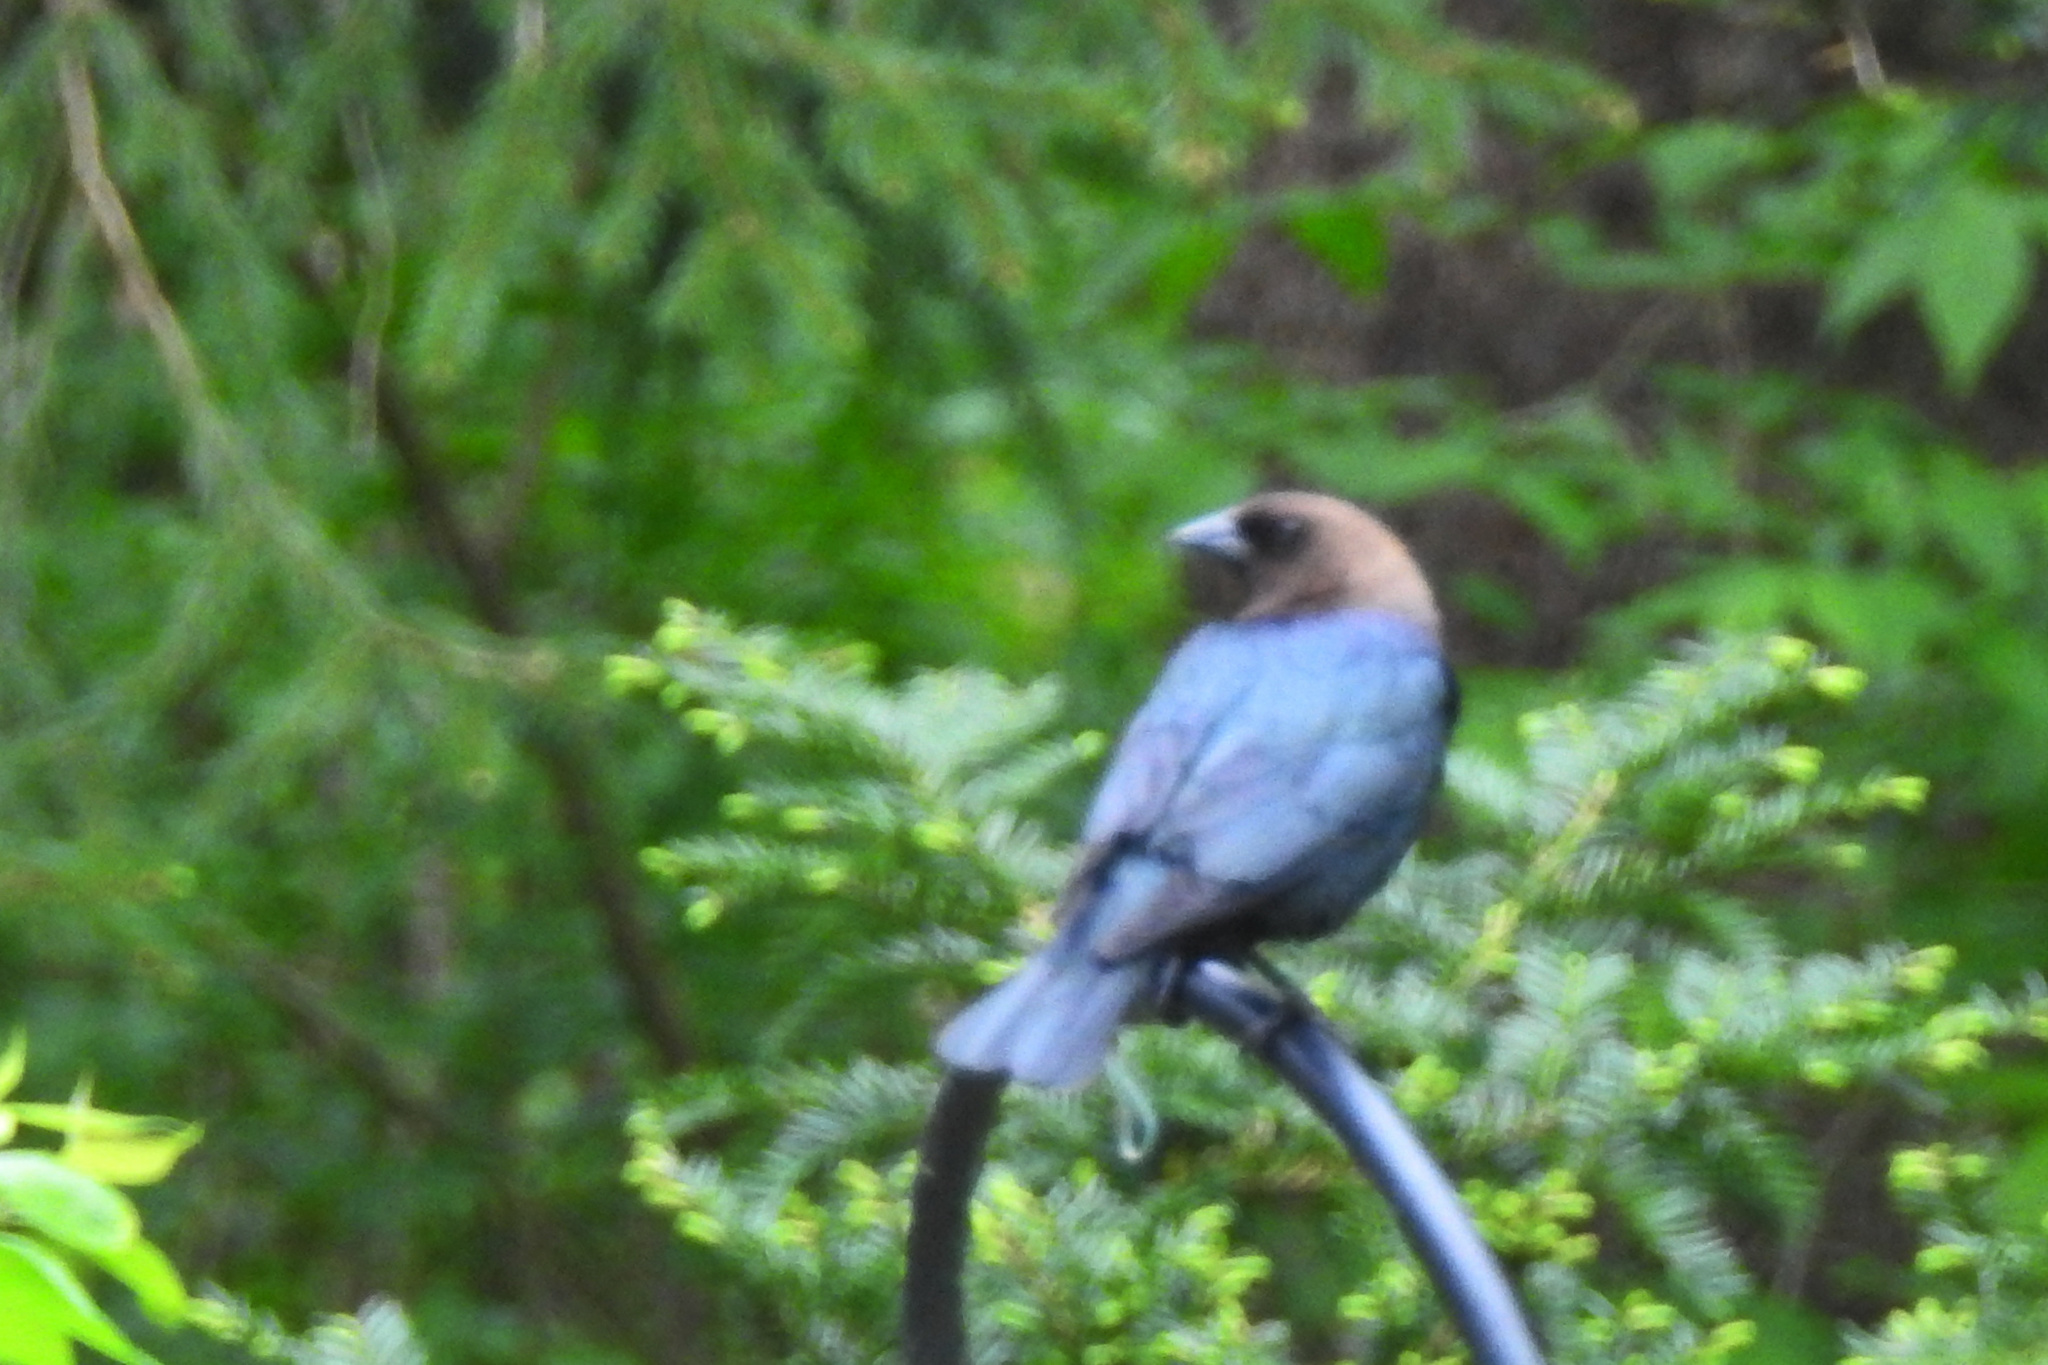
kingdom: Animalia
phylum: Chordata
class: Aves
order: Passeriformes
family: Icteridae
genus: Molothrus
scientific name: Molothrus ater
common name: Brown-headed cowbird
